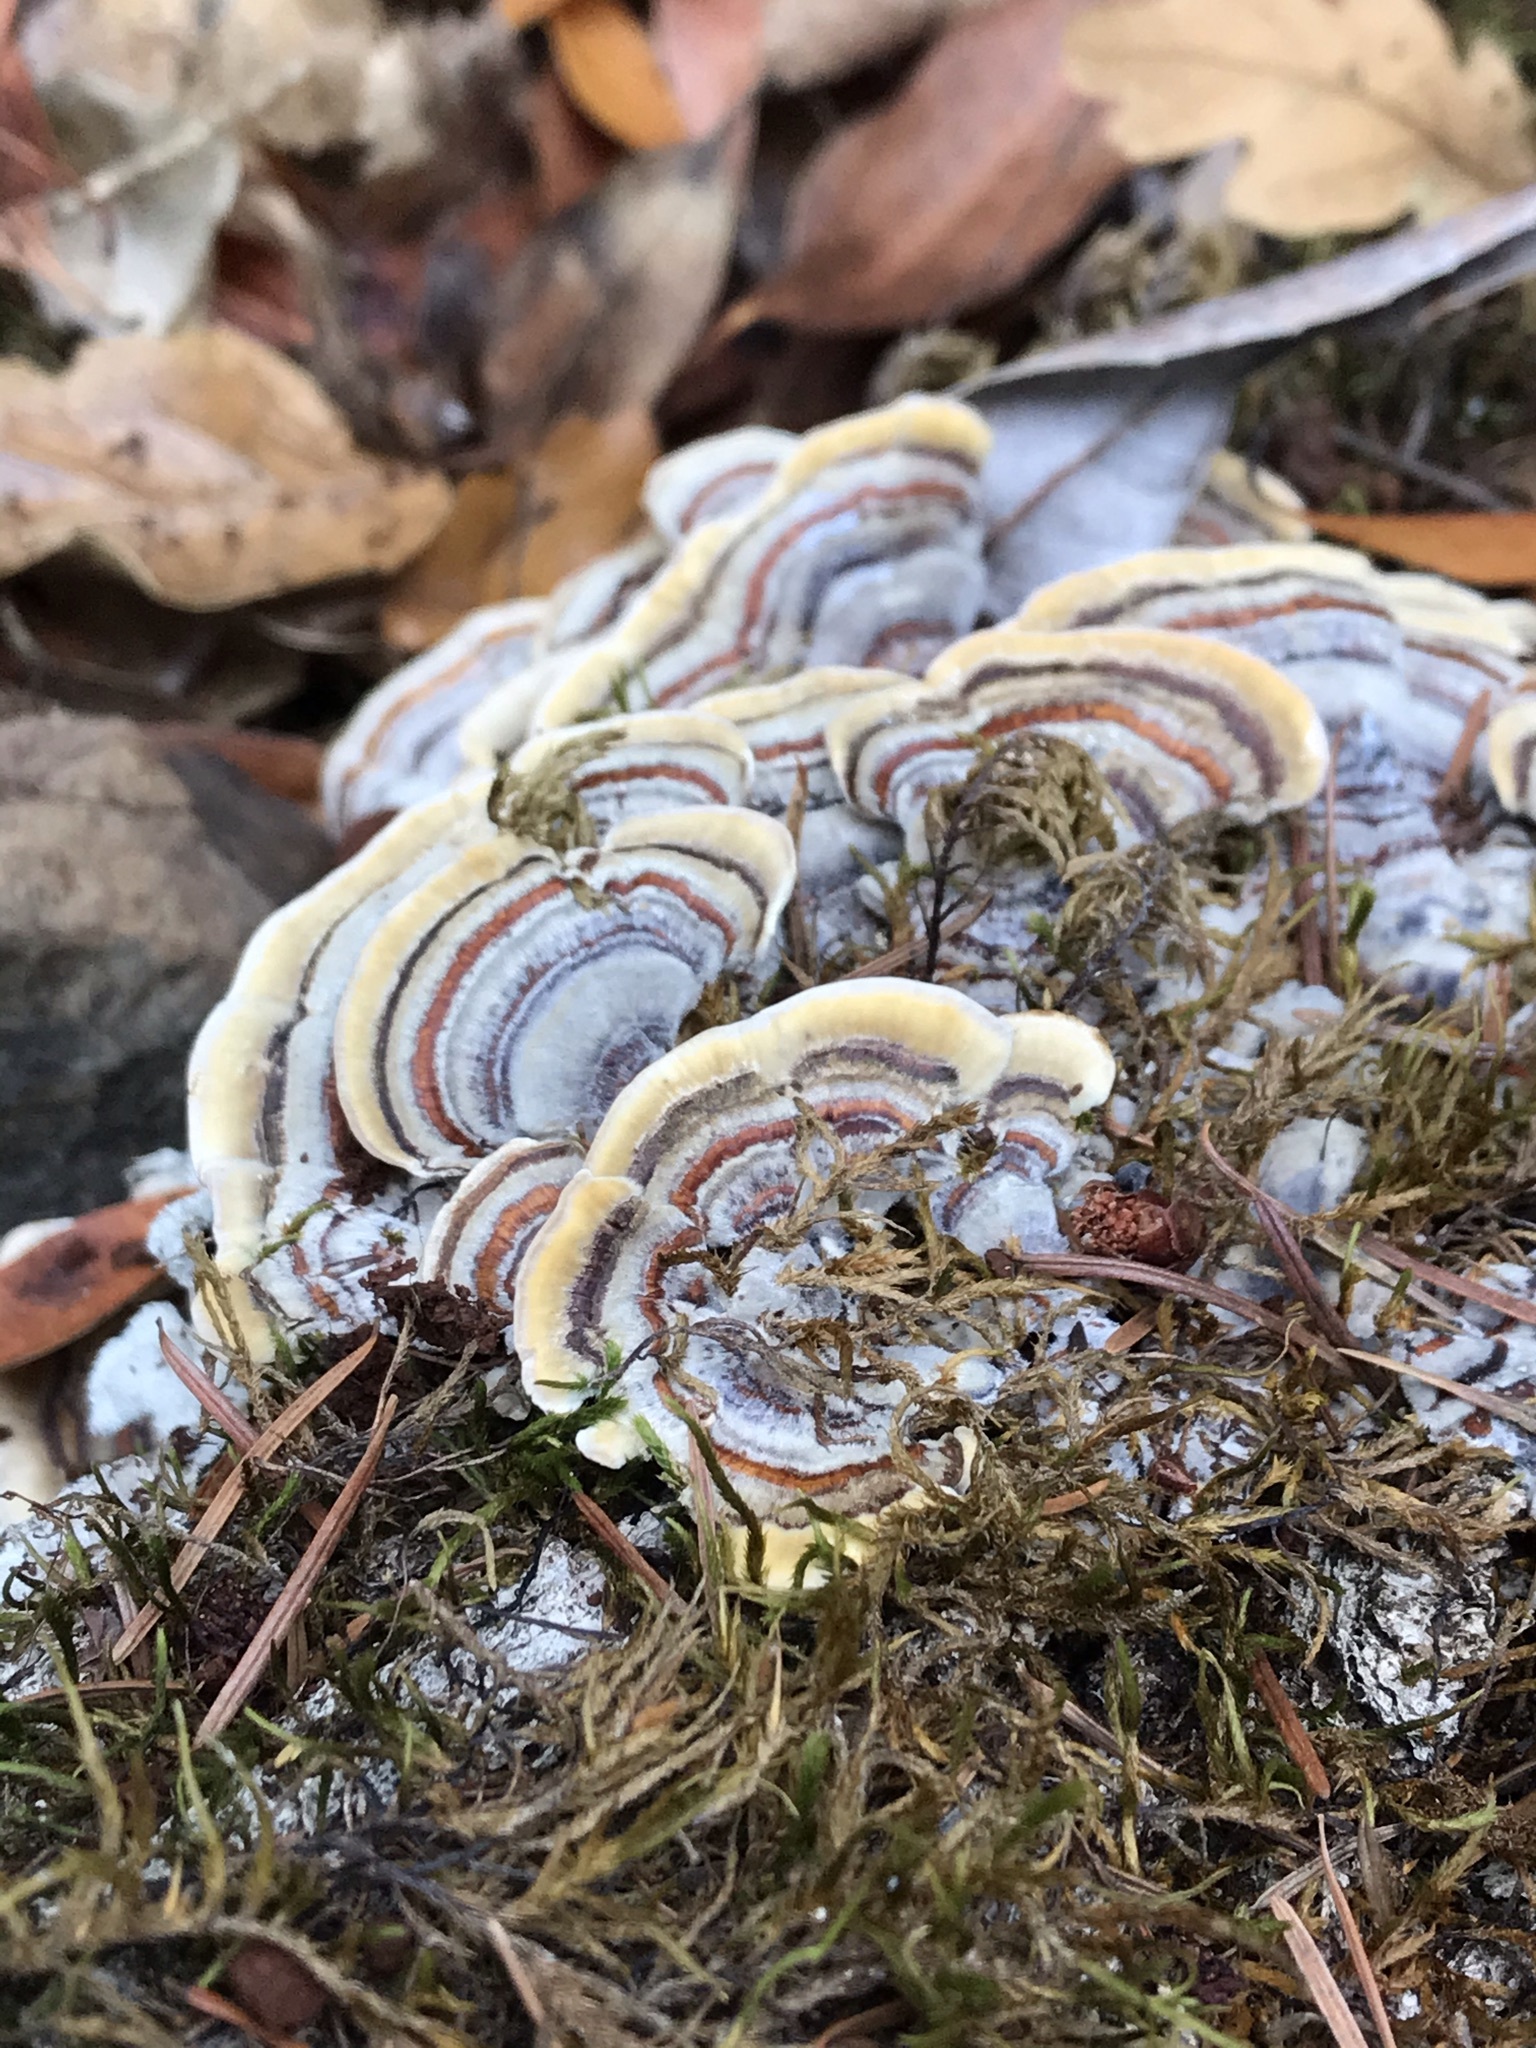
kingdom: Fungi
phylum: Basidiomycota
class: Agaricomycetes
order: Polyporales
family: Polyporaceae
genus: Trametes
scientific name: Trametes versicolor
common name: Turkeytail
